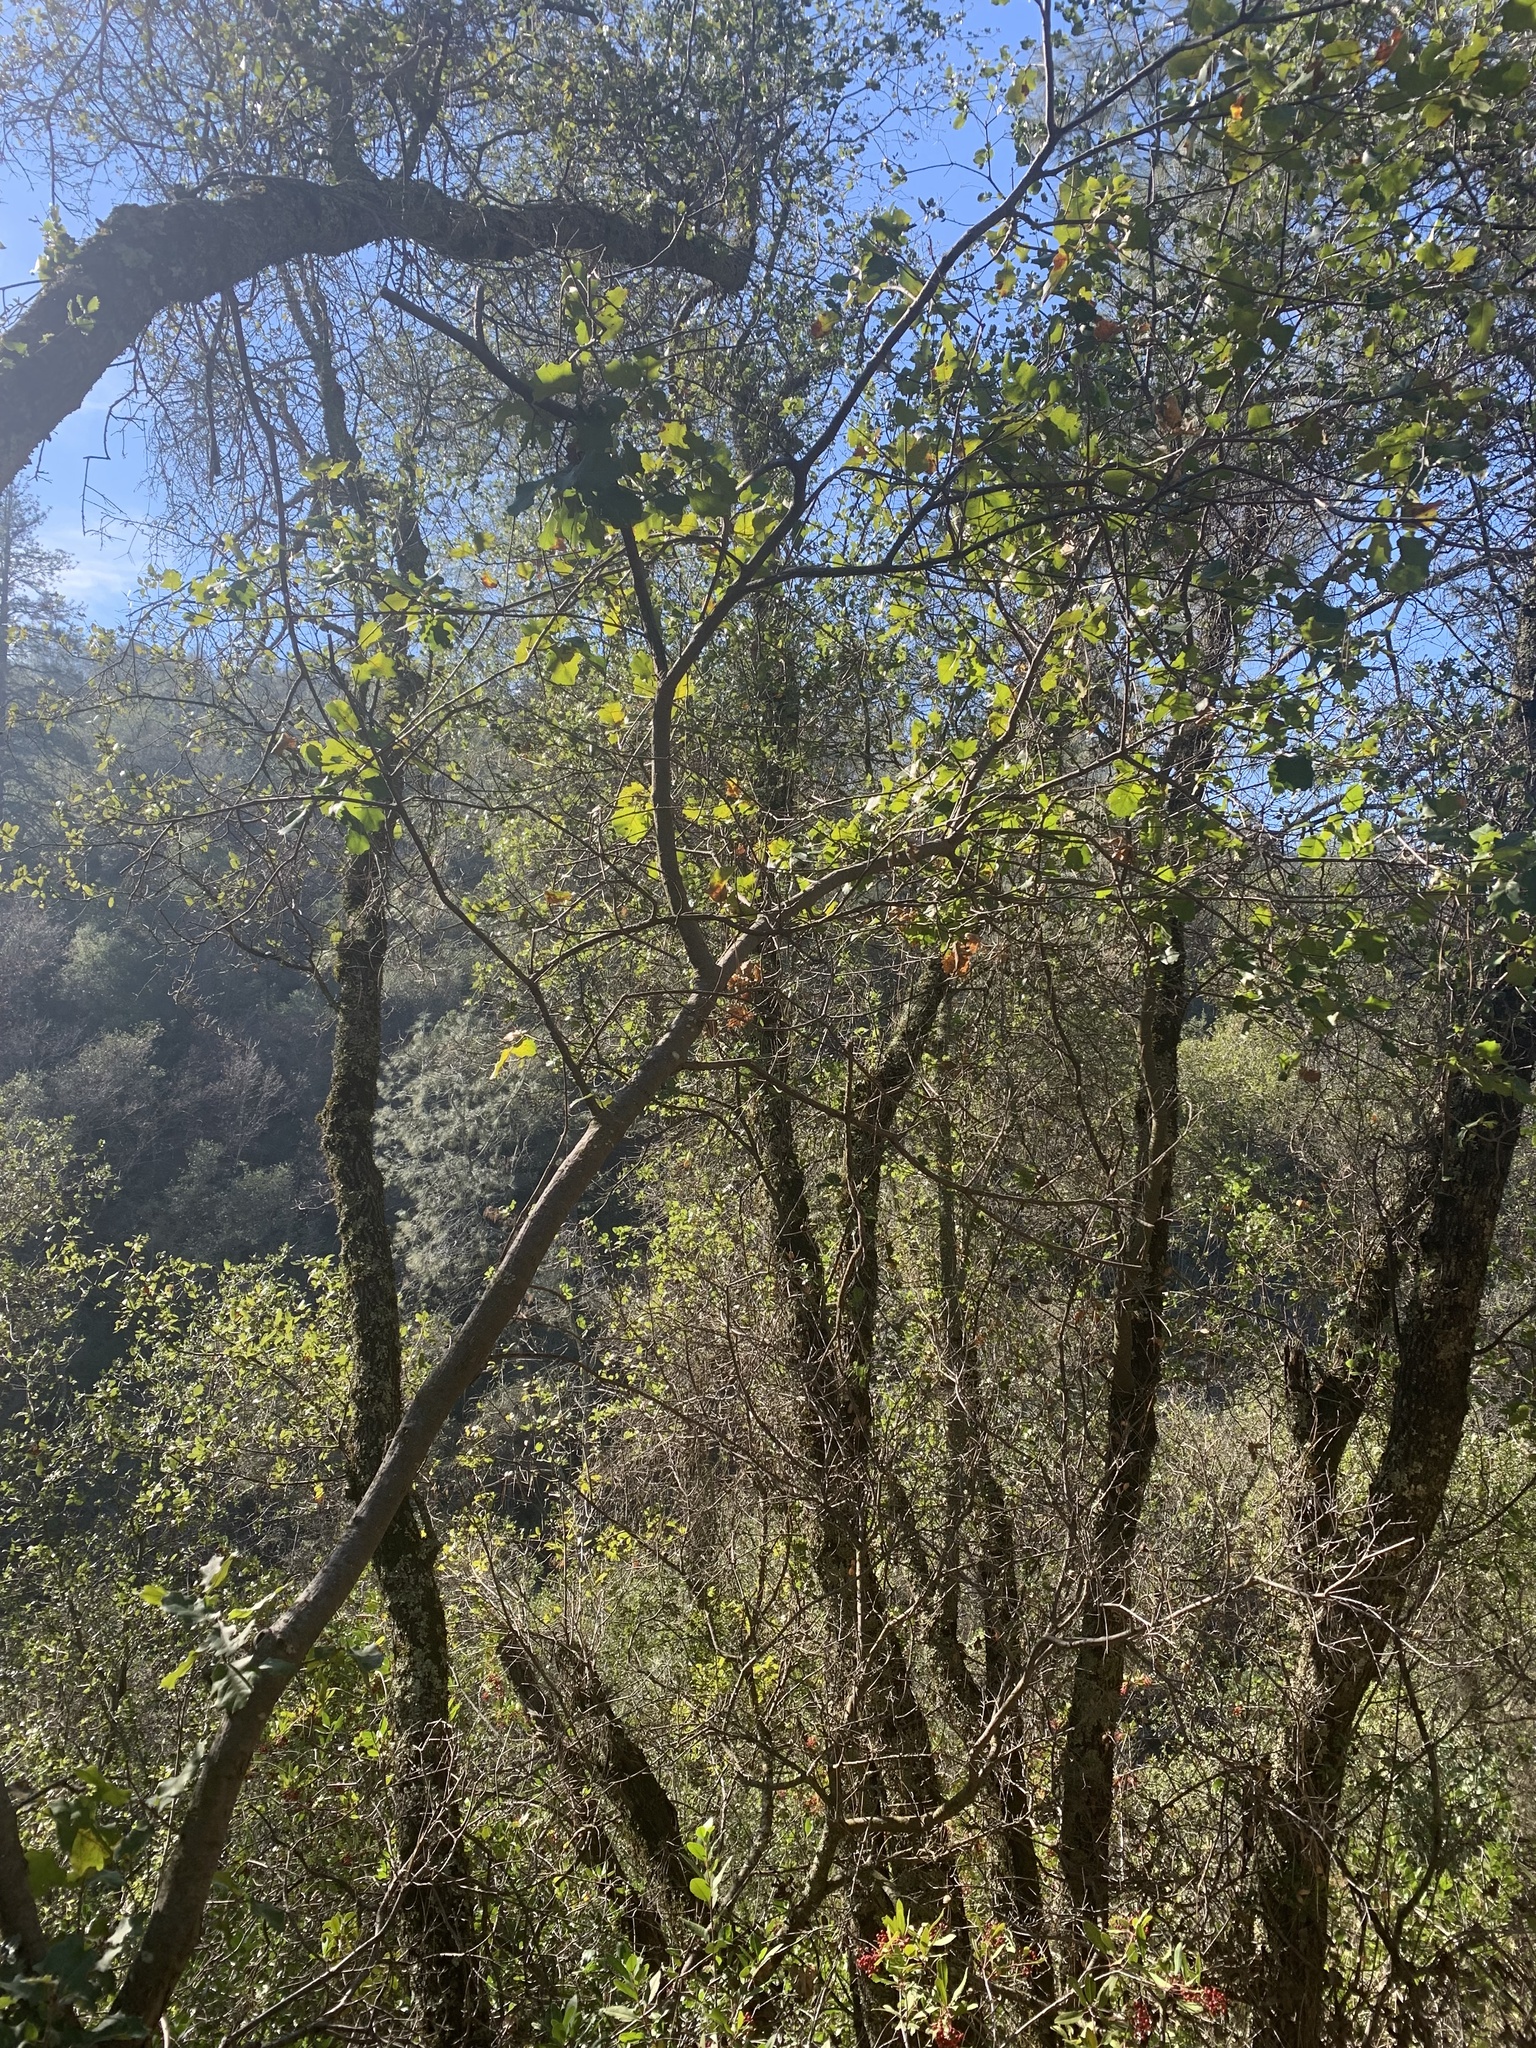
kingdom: Plantae
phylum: Tracheophyta
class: Magnoliopsida
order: Fagales
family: Fagaceae
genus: Quercus
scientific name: Quercus morehus
